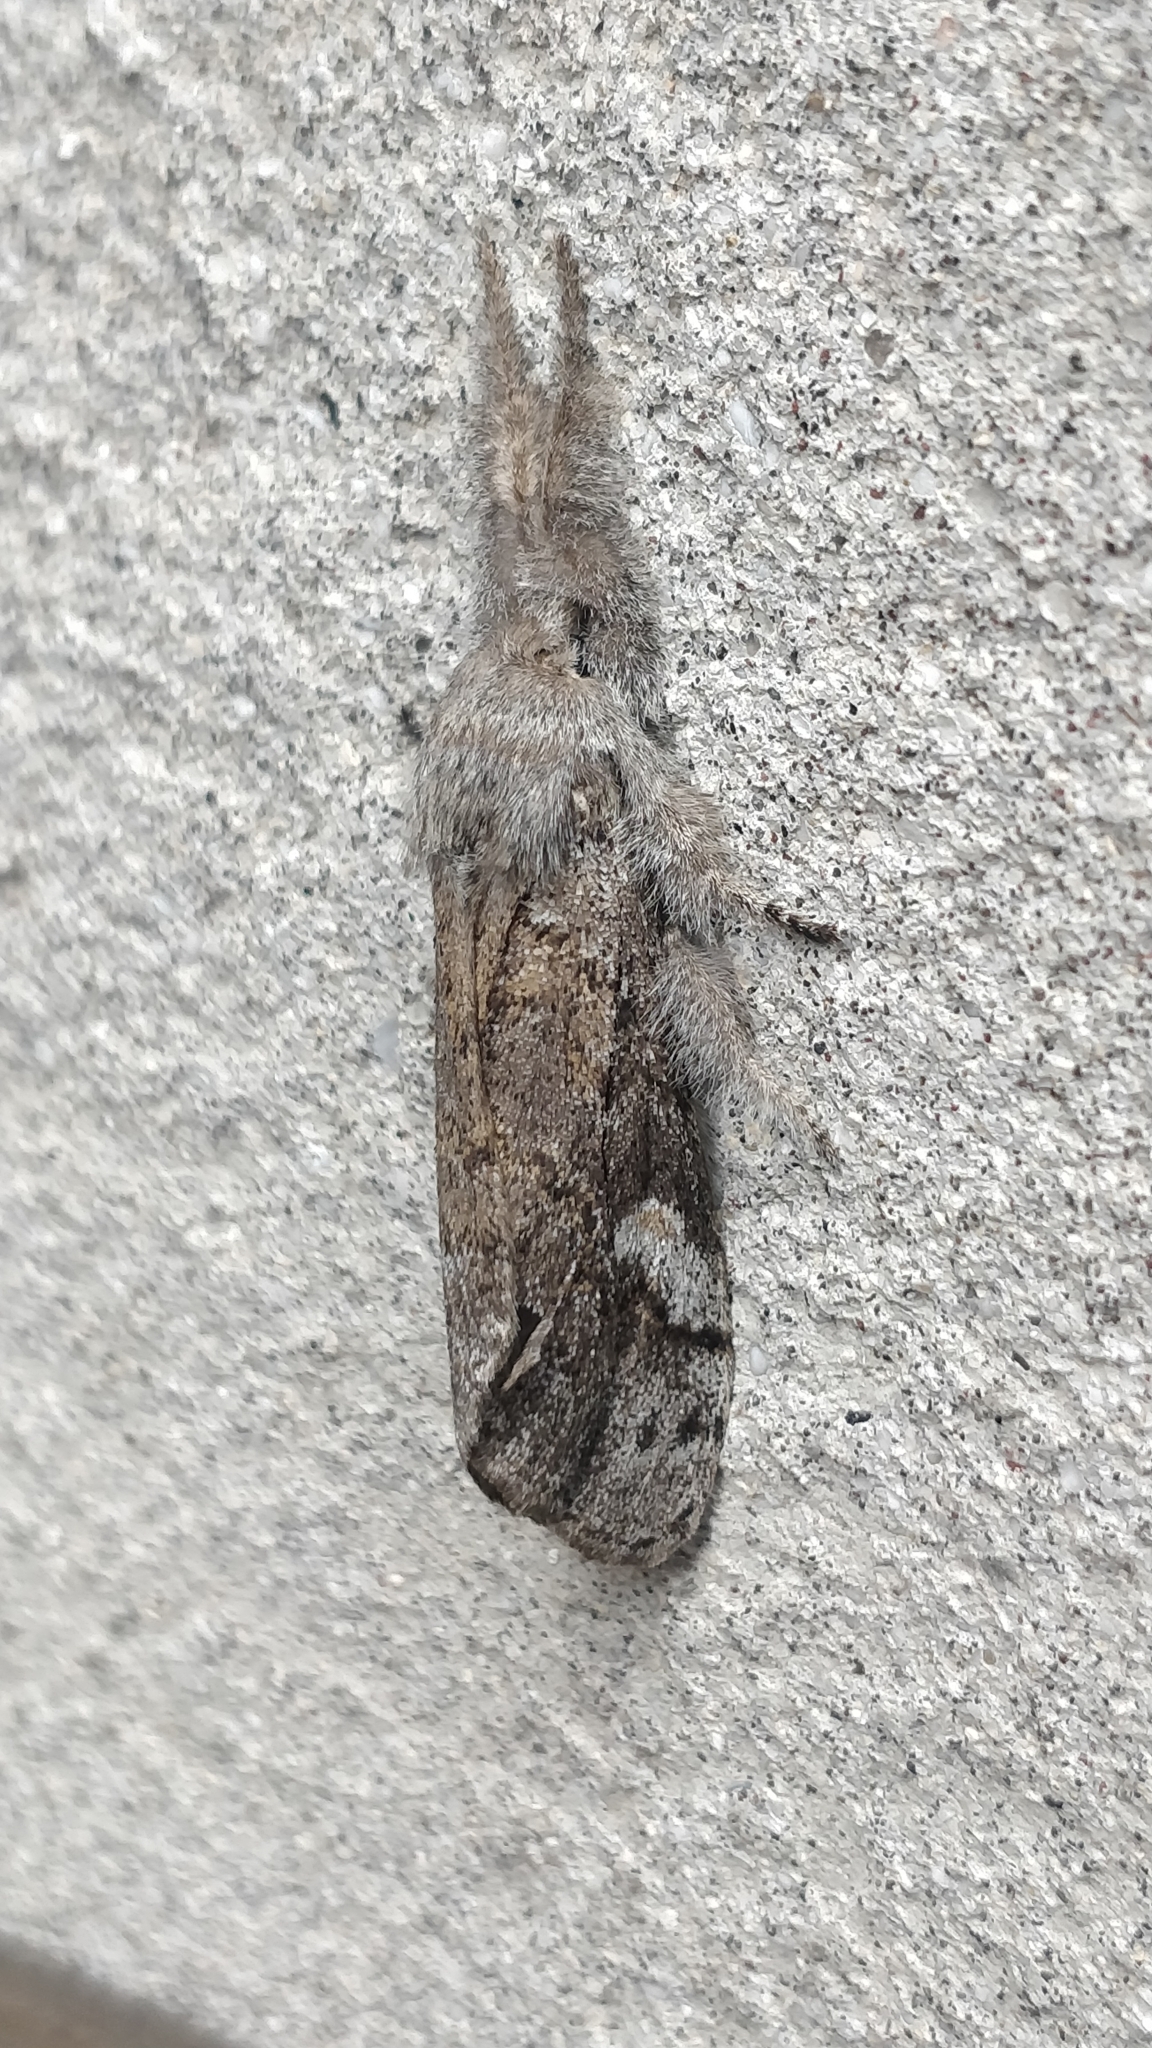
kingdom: Animalia
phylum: Arthropoda
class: Insecta
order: Lepidoptera
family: Erebidae
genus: Calliteara
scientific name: Calliteara
